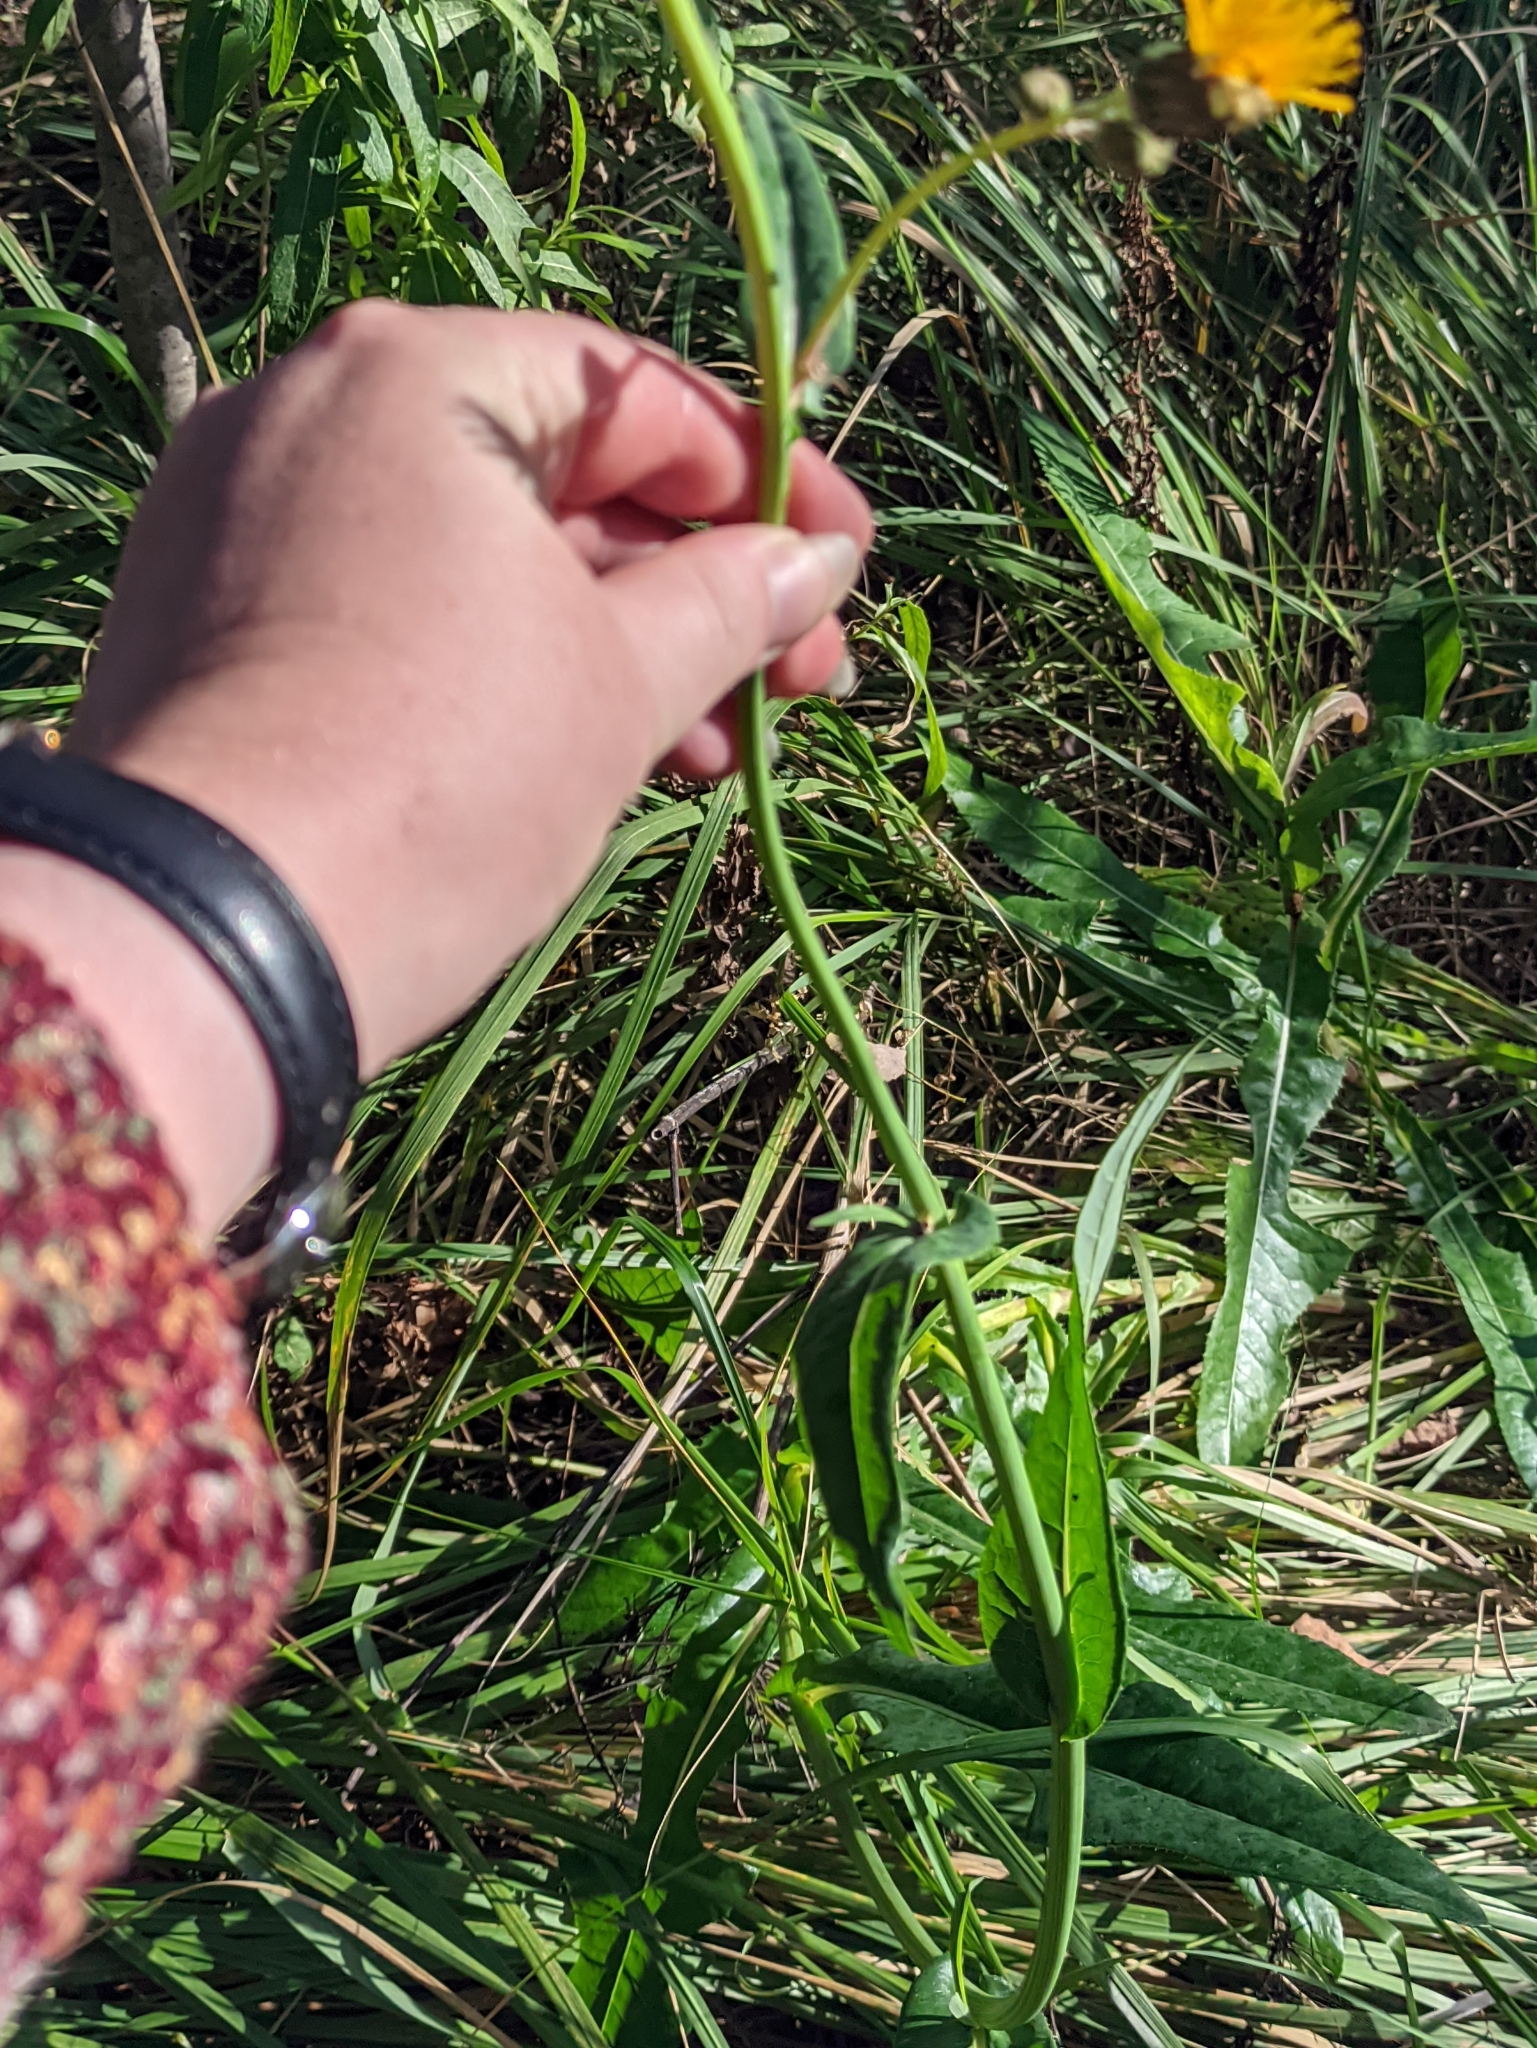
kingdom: Plantae
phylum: Tracheophyta
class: Magnoliopsida
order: Asterales
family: Asteraceae
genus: Sonchus
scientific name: Sonchus arvensis
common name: Perennial sow-thistle
